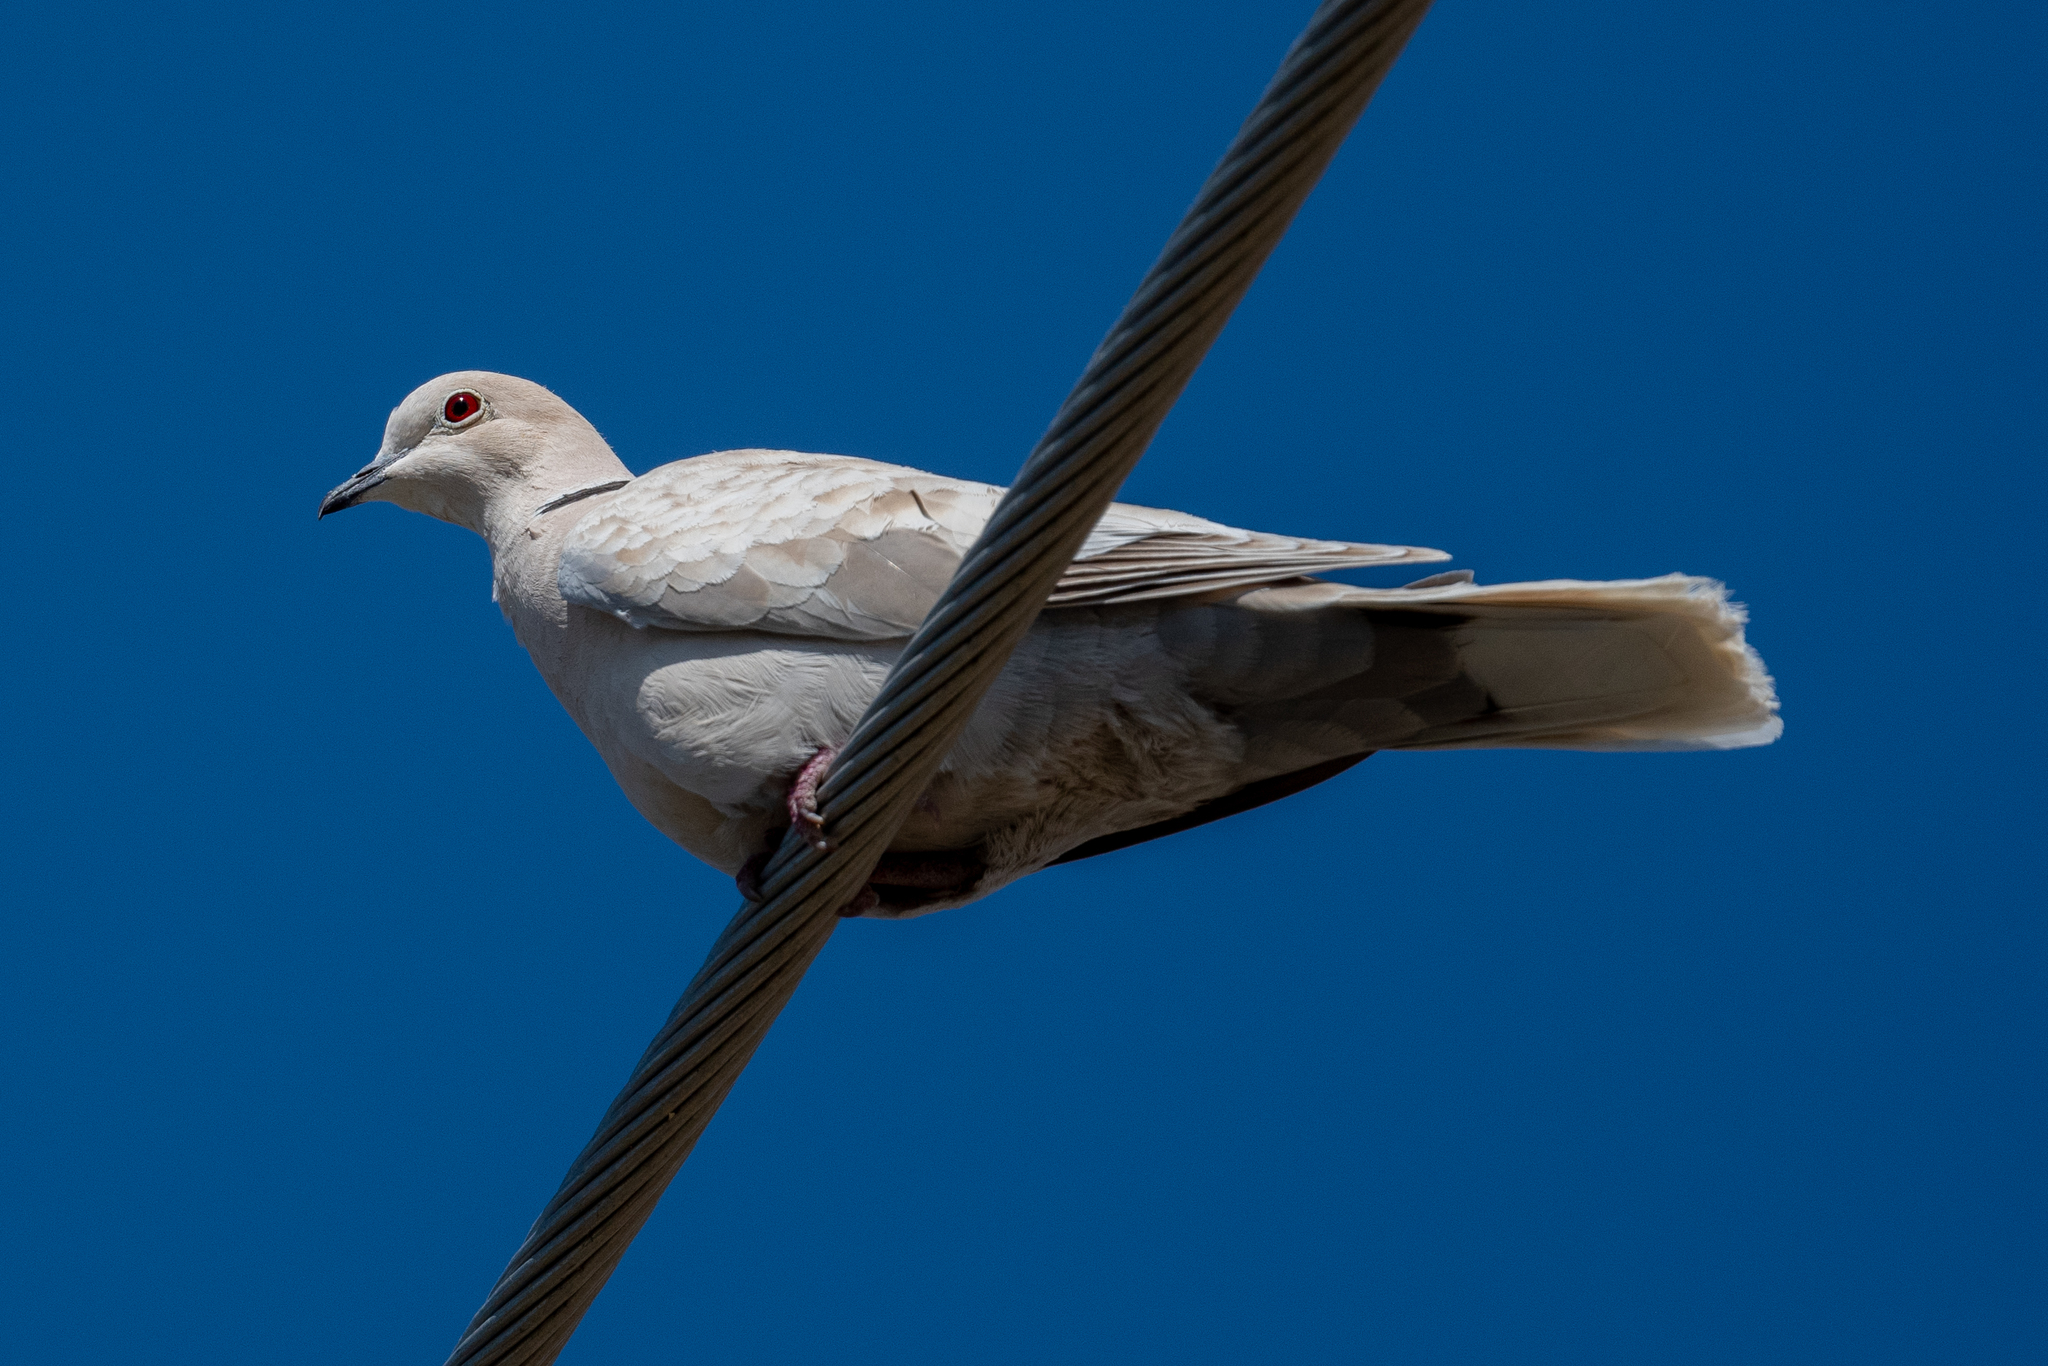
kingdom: Animalia
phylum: Chordata
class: Aves
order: Columbiformes
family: Columbidae
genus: Streptopelia
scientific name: Streptopelia decaocto
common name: Eurasian collared dove
